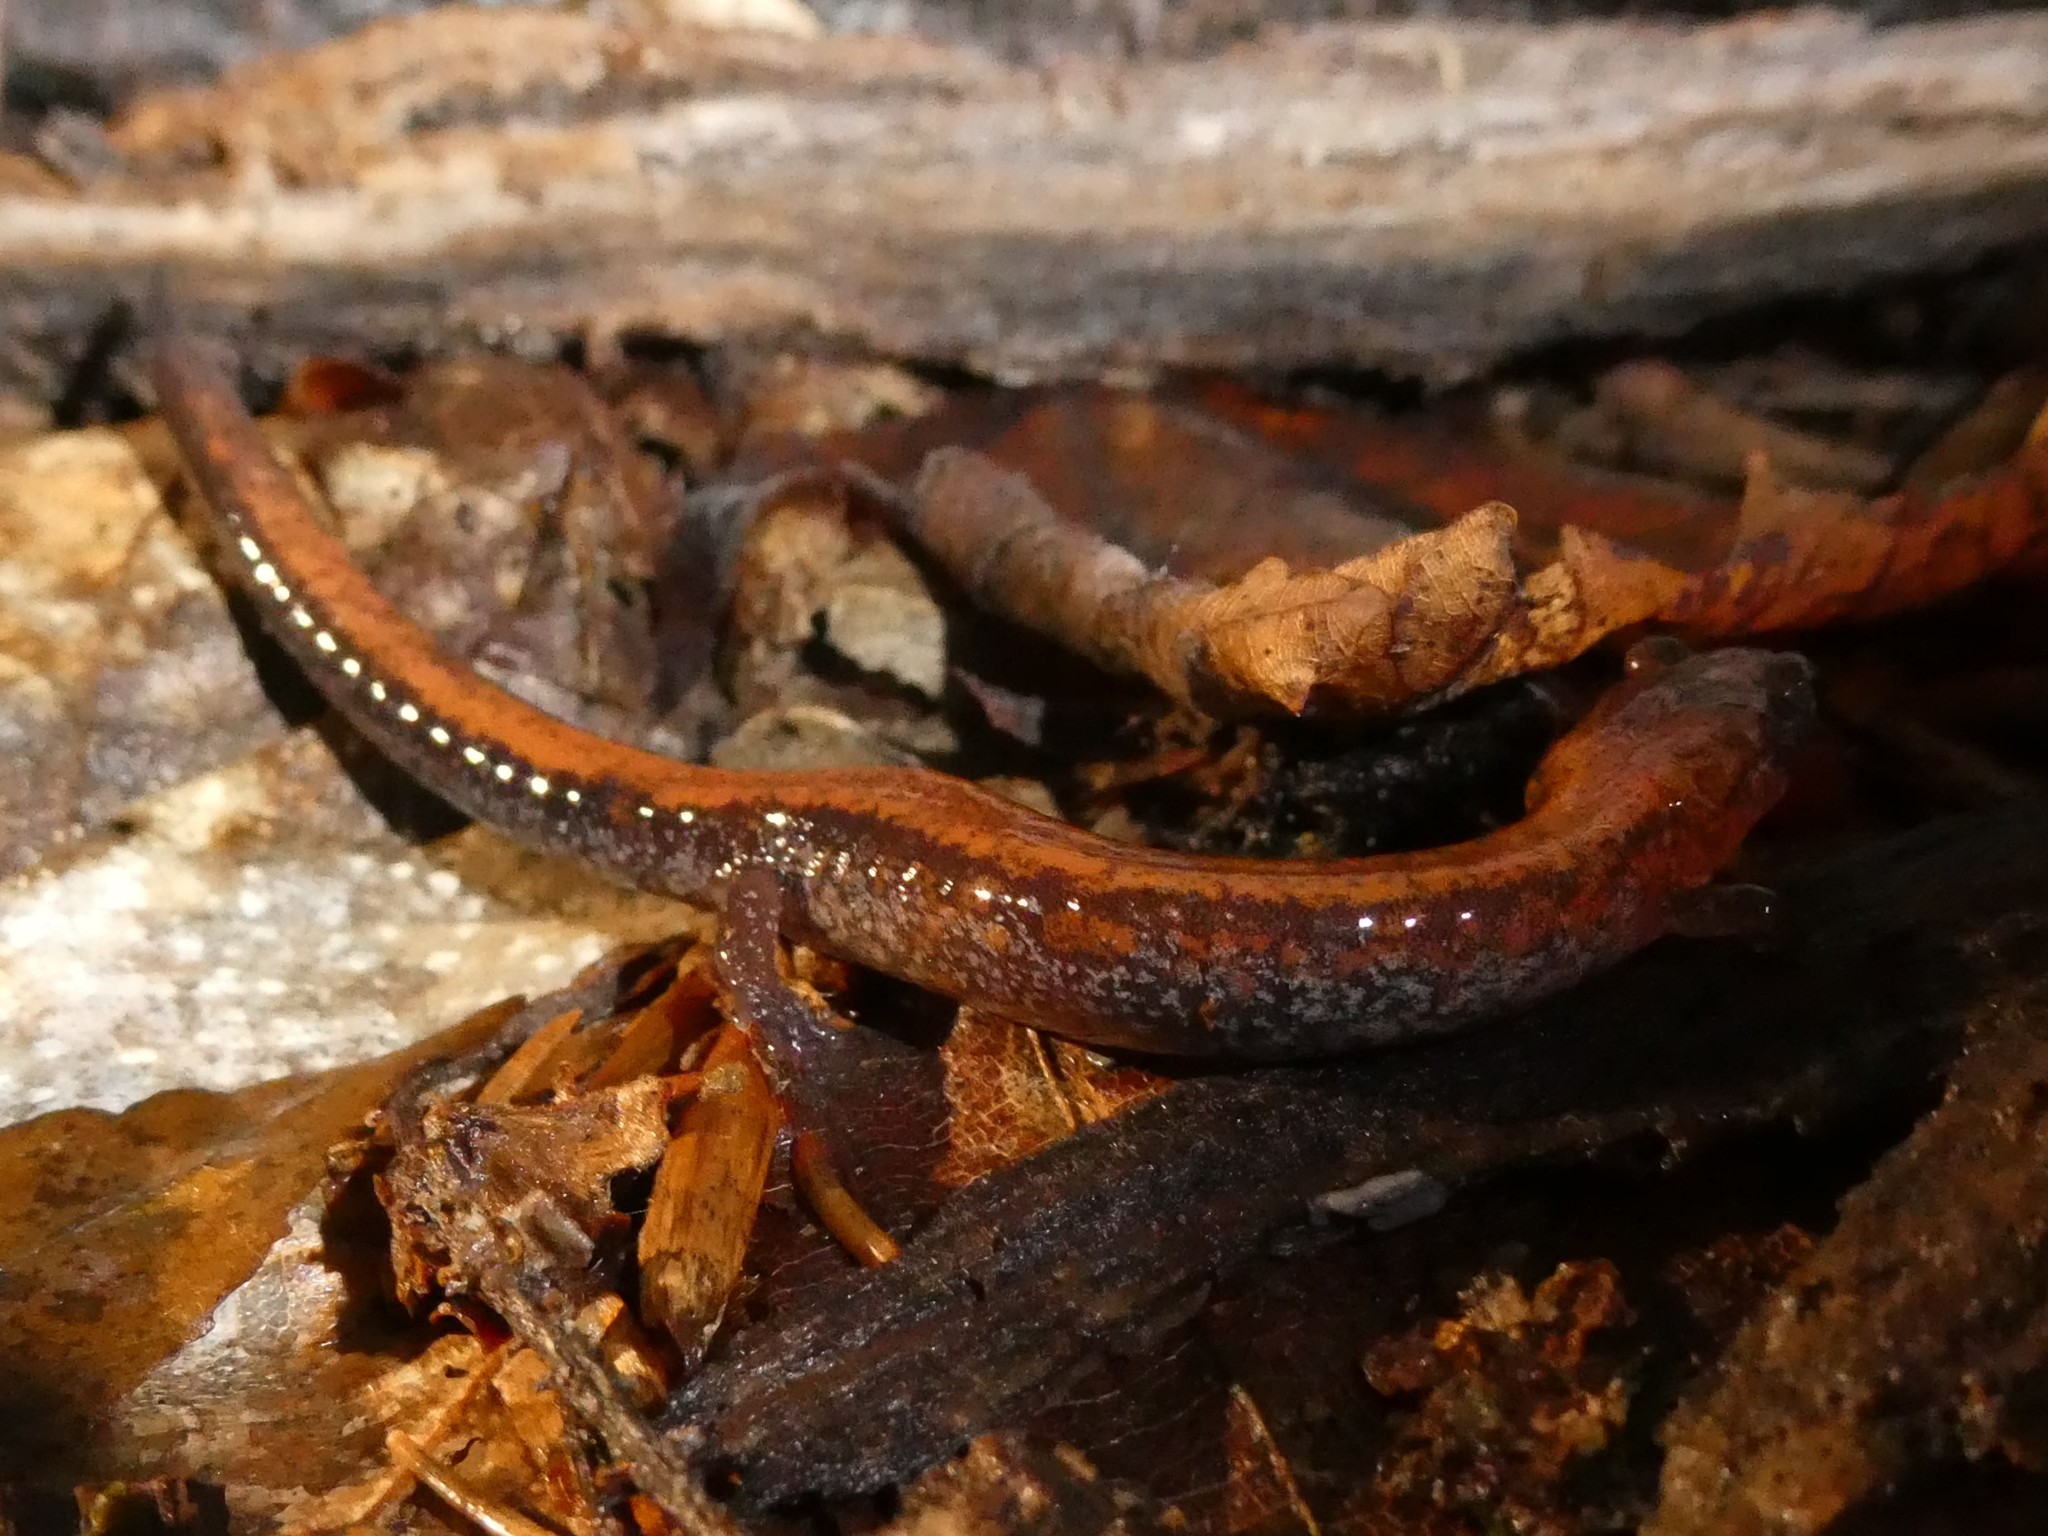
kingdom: Animalia
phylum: Chordata
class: Amphibia
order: Caudata
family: Plethodontidae
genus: Plethodon
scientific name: Plethodon cinereus
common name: Redback salamander
